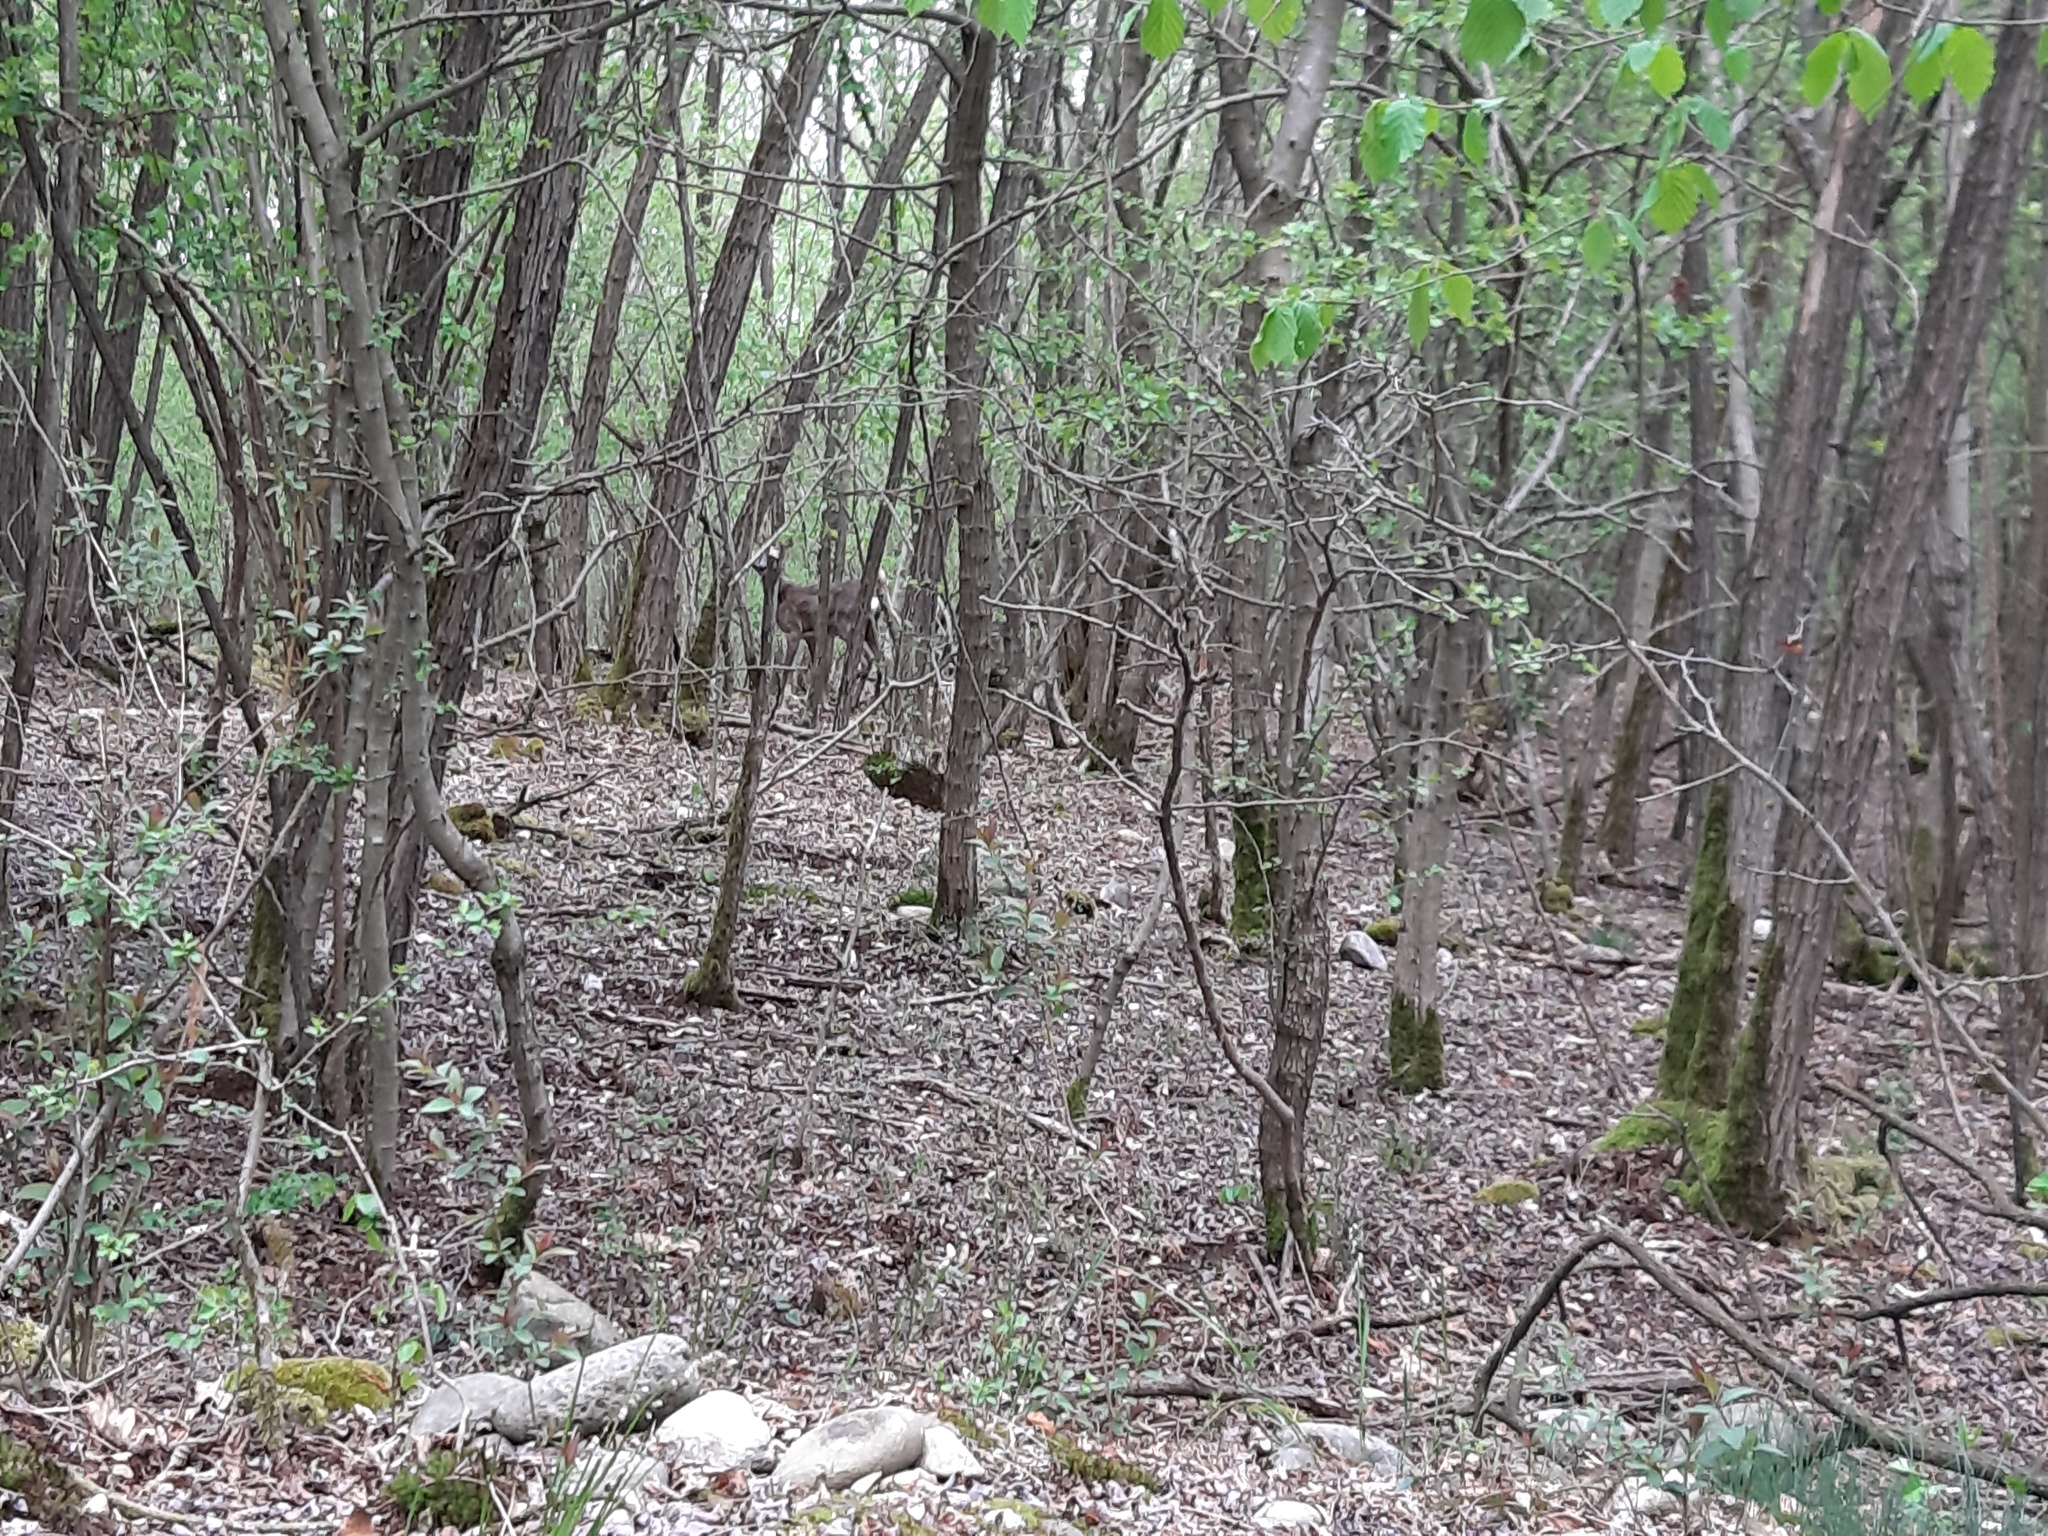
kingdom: Animalia
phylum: Chordata
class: Mammalia
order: Artiodactyla
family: Cervidae
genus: Capreolus
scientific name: Capreolus capreolus
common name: Western roe deer
